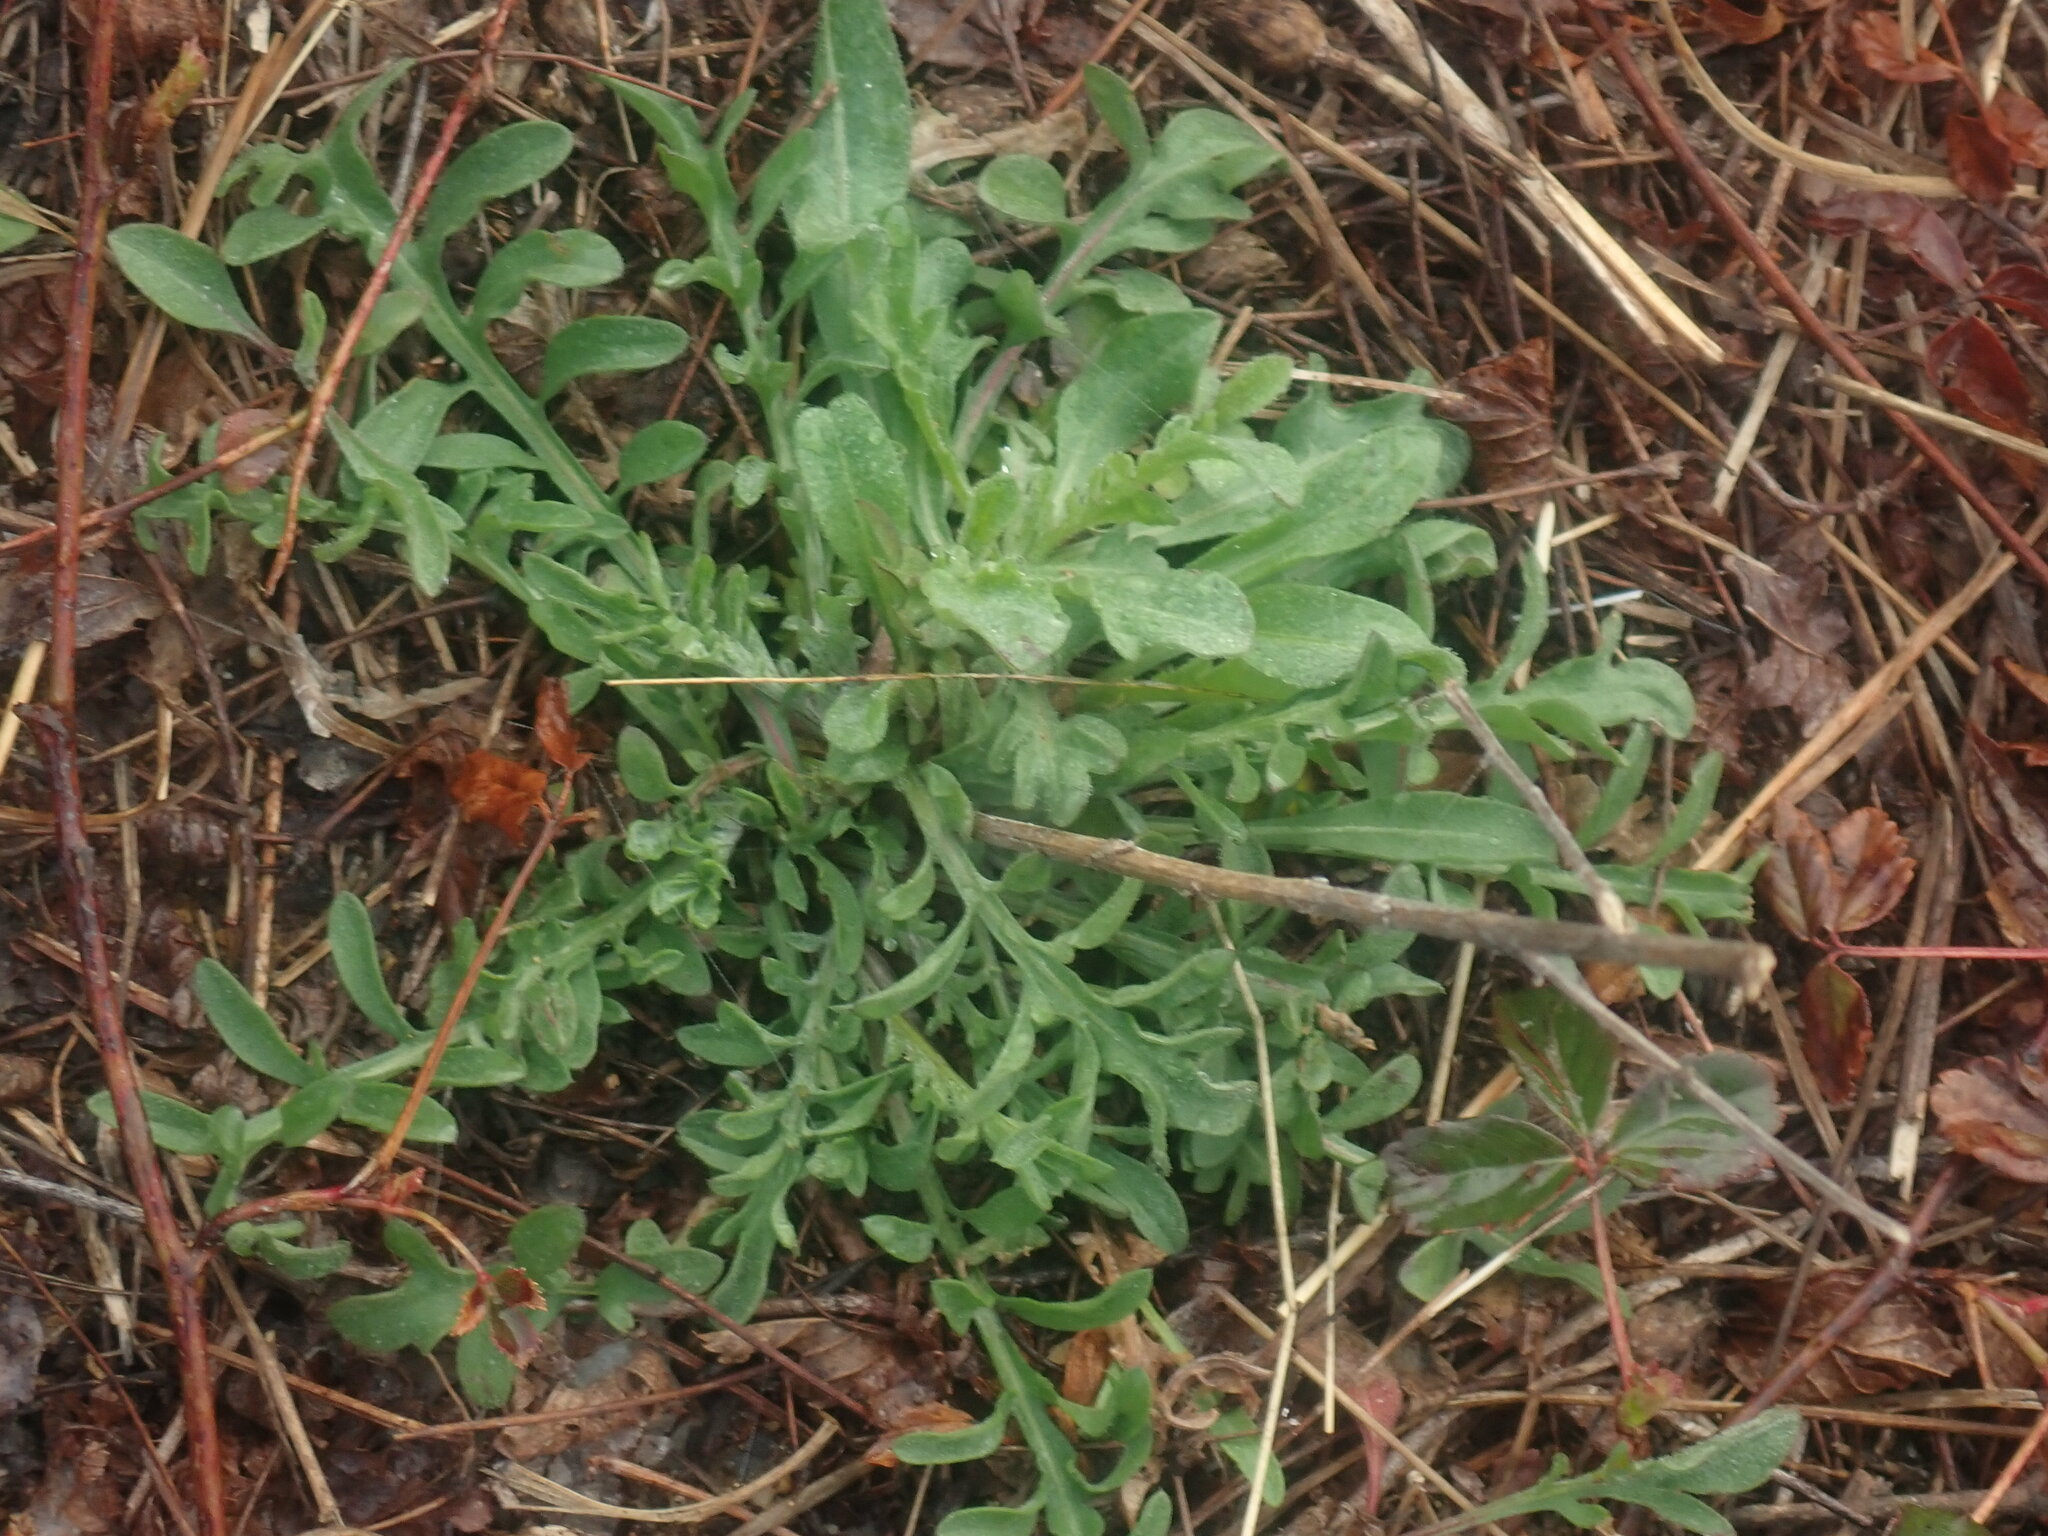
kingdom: Plantae
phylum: Tracheophyta
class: Magnoliopsida
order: Asterales
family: Asteraceae
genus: Centaurea
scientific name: Centaurea stoebe
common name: Spotted knapweed
